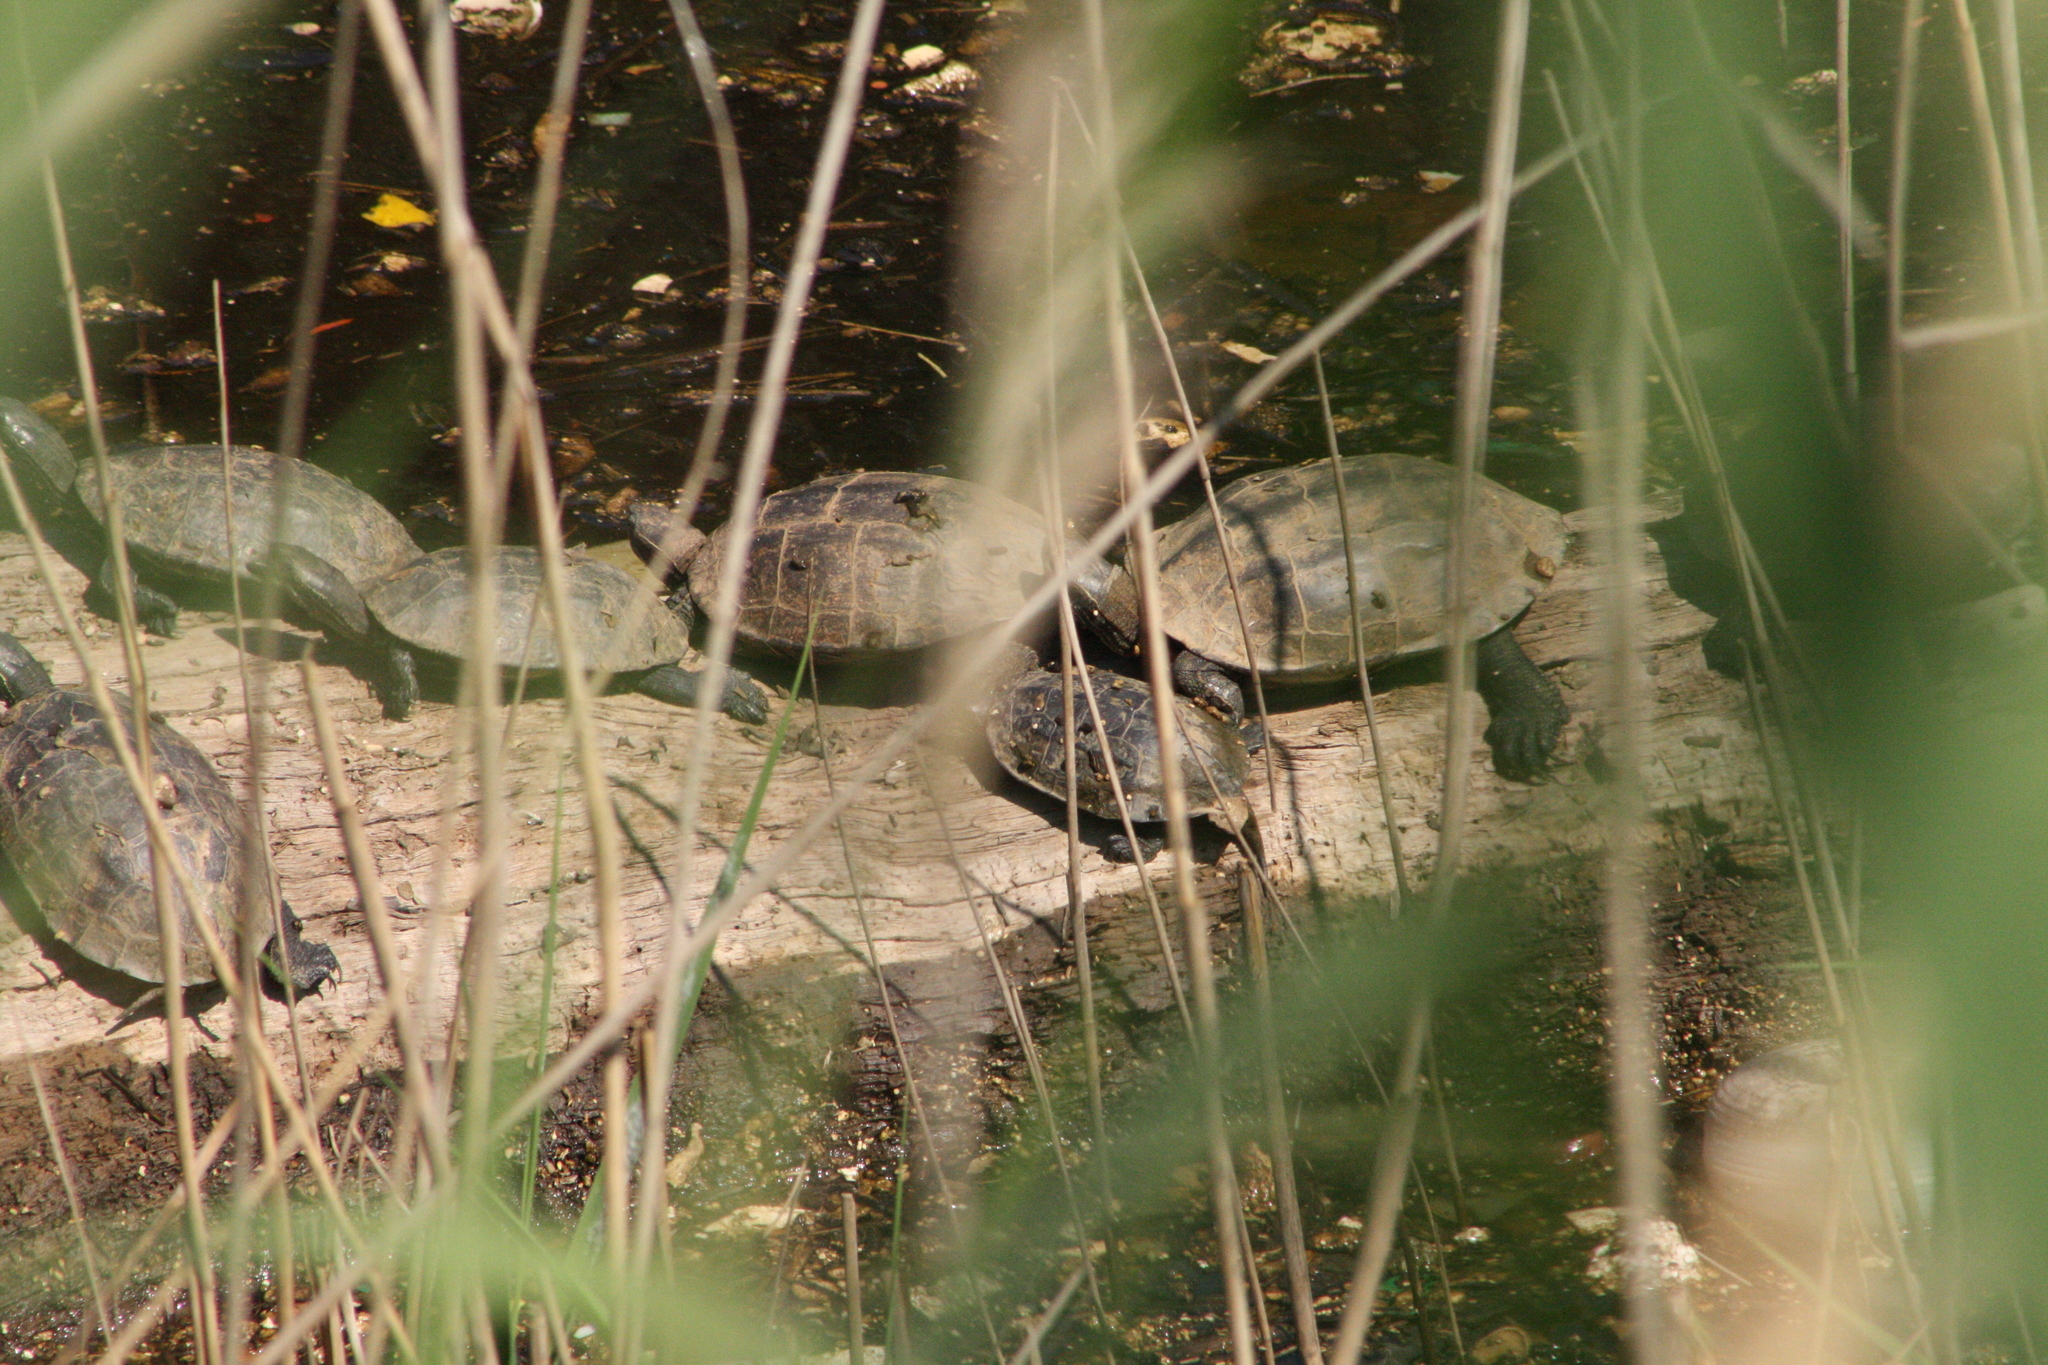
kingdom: Animalia
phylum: Chordata
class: Testudines
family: Geoemydidae
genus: Mauremys
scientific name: Mauremys rivulata
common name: Western caspian turtle
